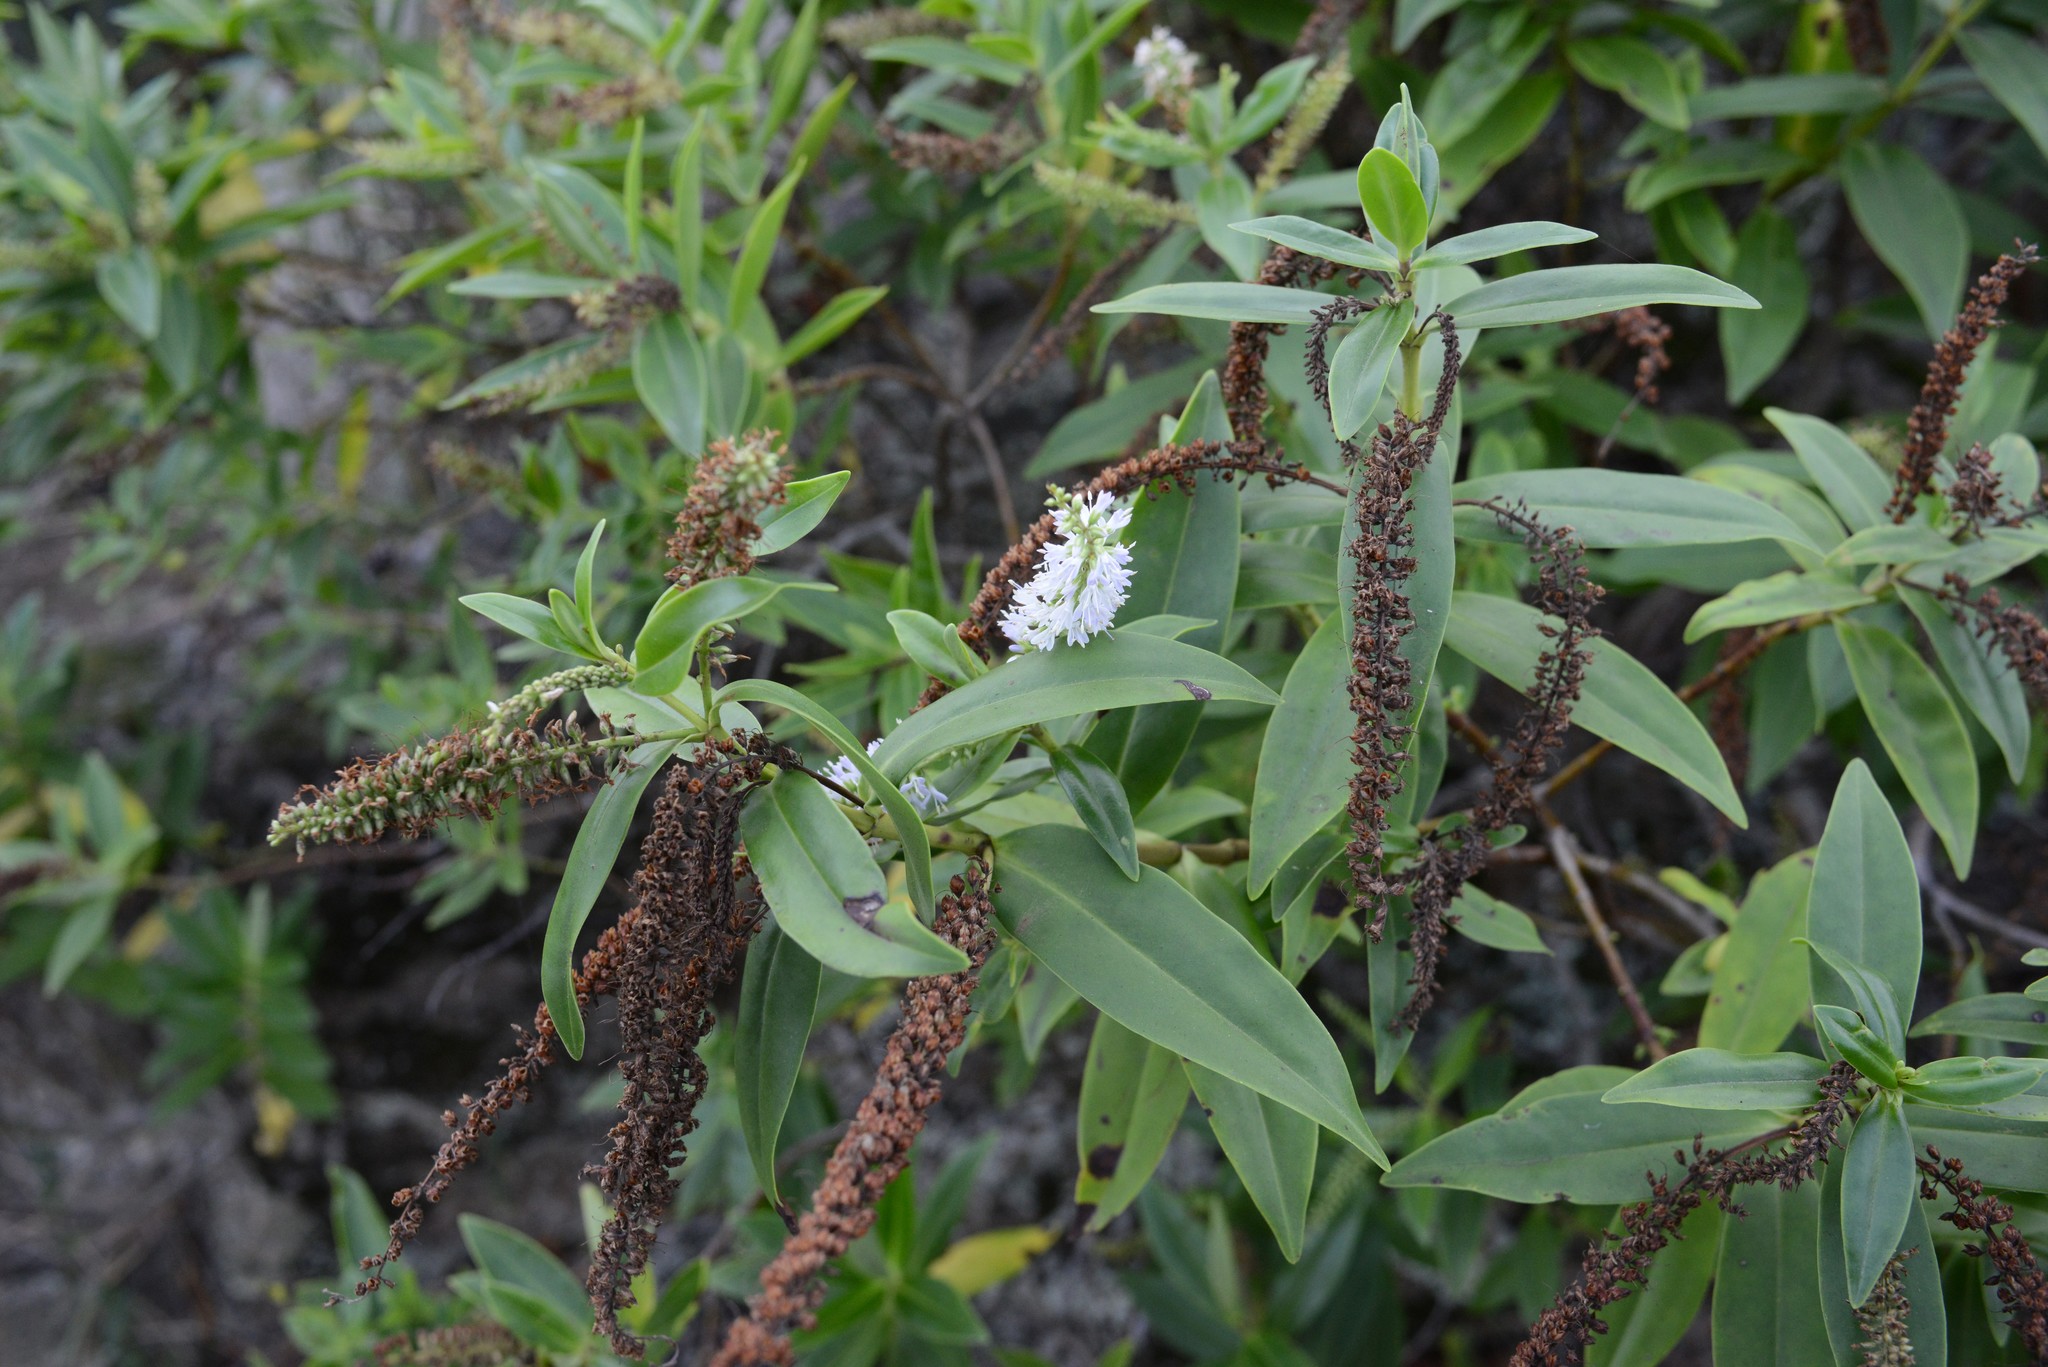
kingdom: Plantae
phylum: Tracheophyta
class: Magnoliopsida
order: Lamiales
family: Plantaginaceae
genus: Veronica
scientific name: Veronica salicifolia
